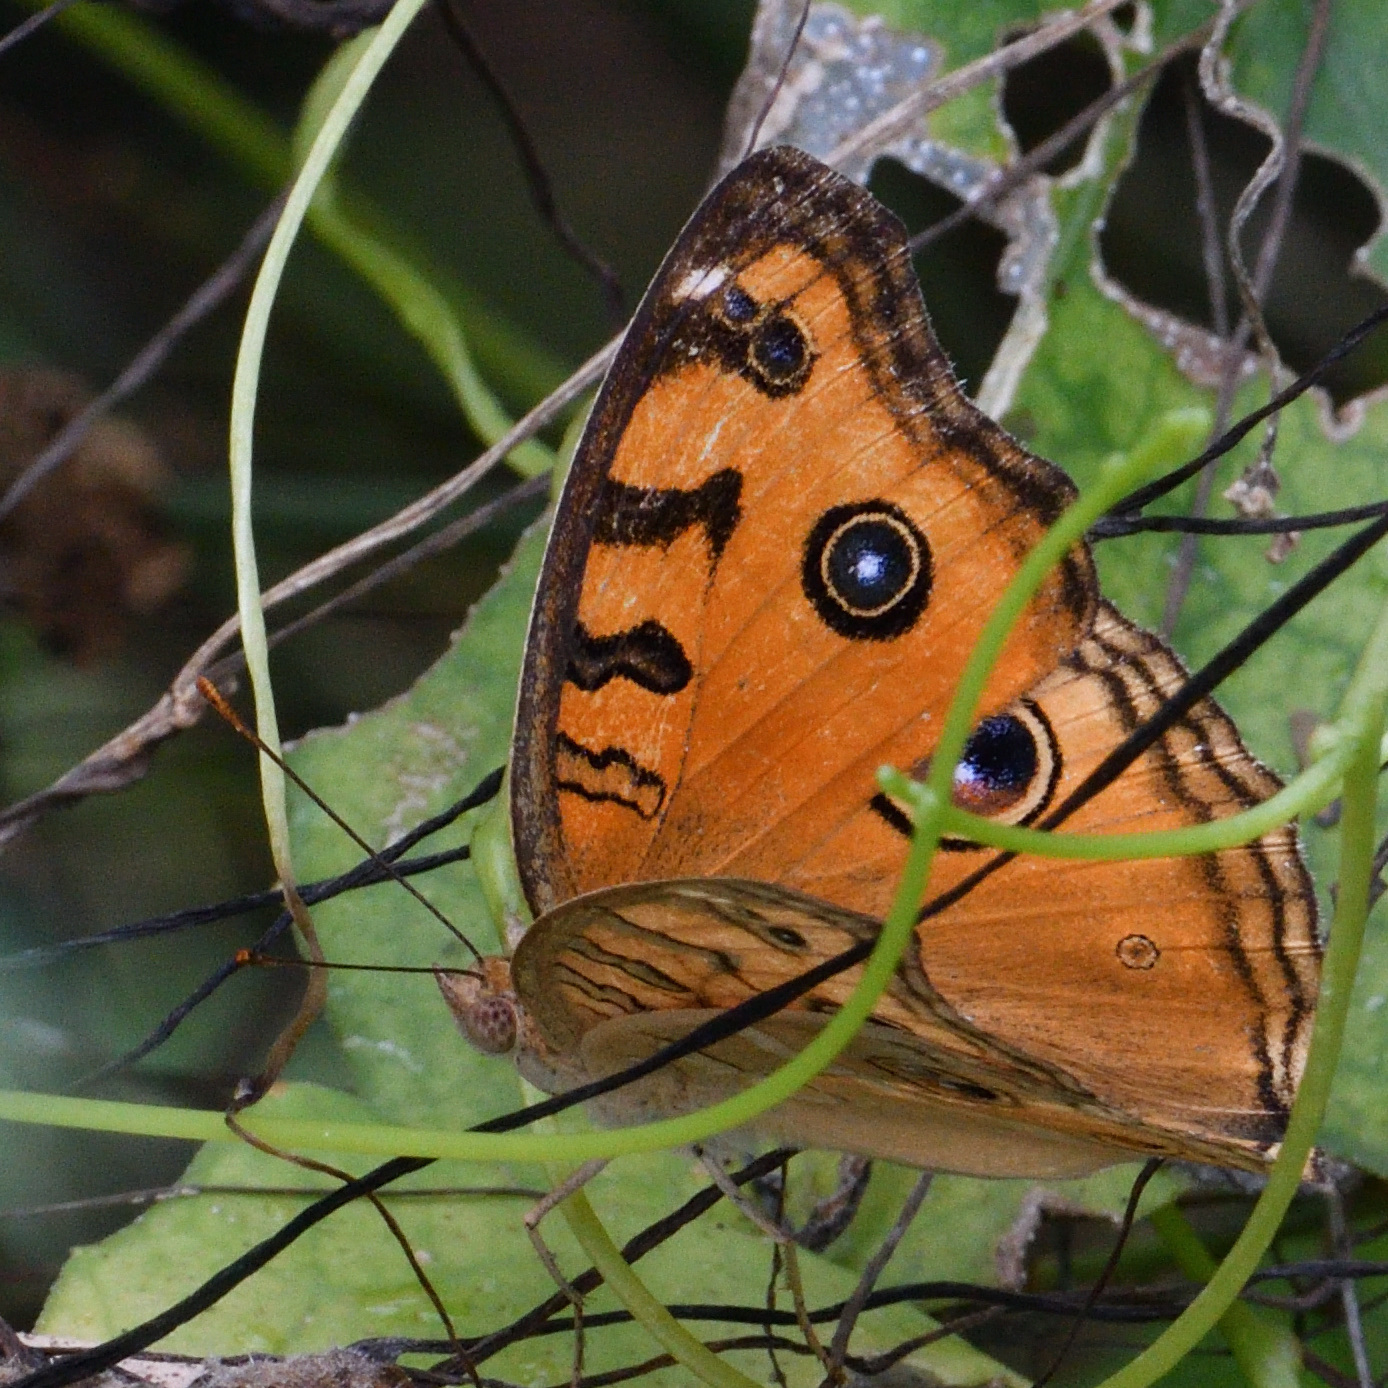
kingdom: Animalia
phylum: Arthropoda
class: Insecta
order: Lepidoptera
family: Nymphalidae
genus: Junonia
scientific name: Junonia almana
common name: Peacock pansy
